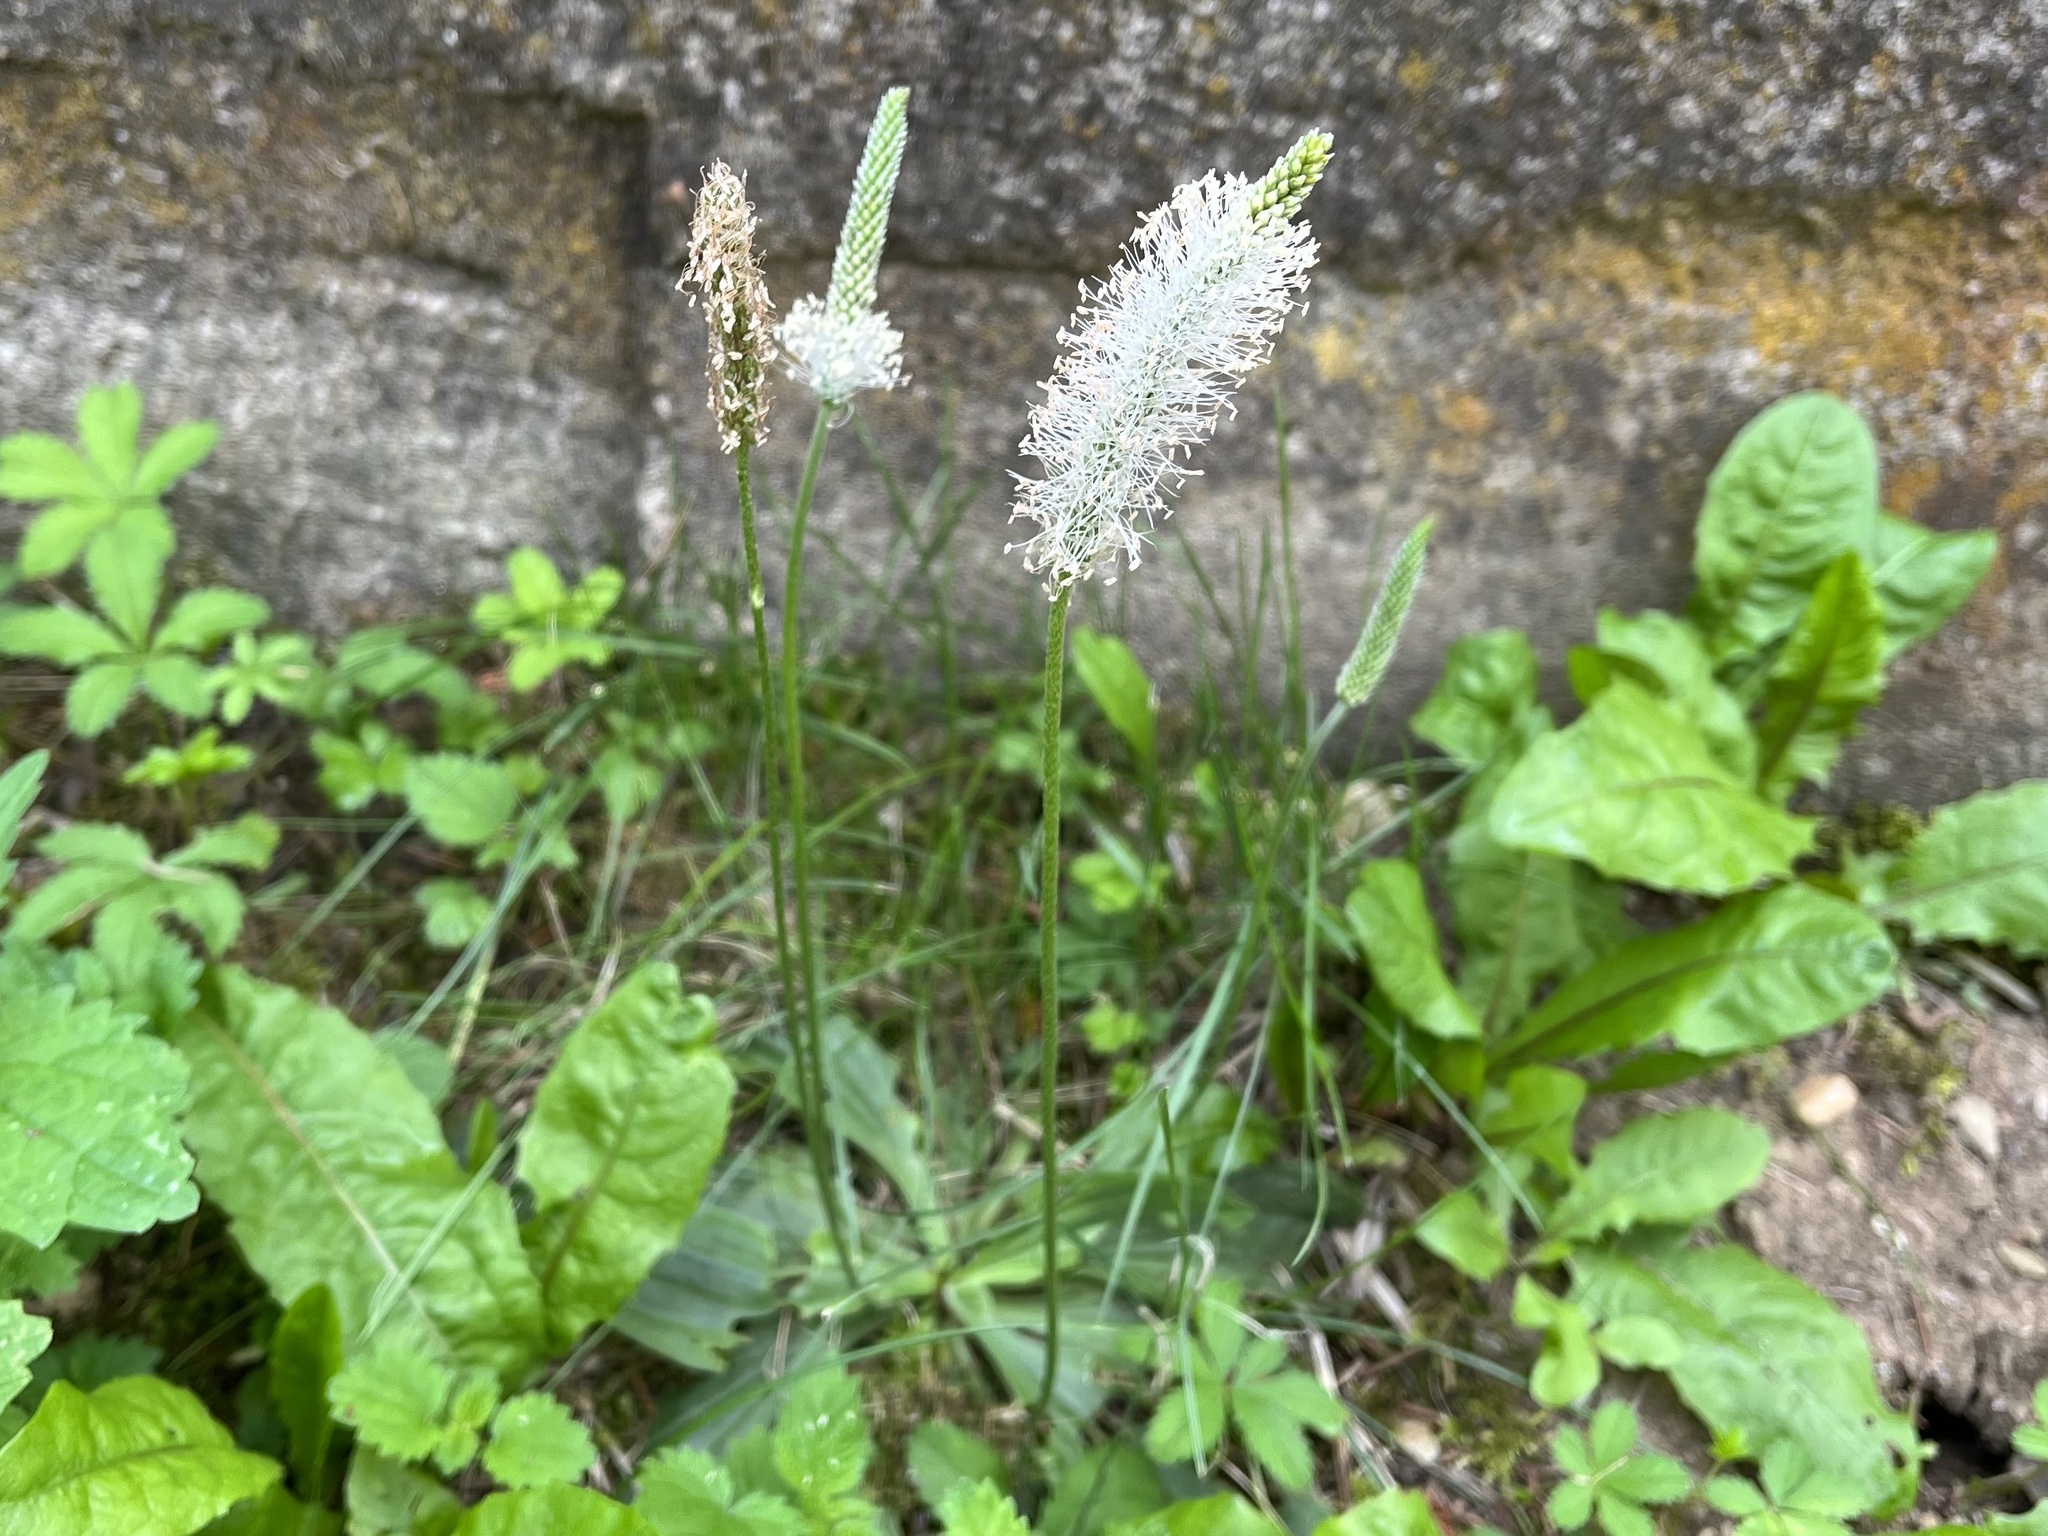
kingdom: Plantae
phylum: Tracheophyta
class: Magnoliopsida
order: Lamiales
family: Plantaginaceae
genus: Plantago
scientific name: Plantago media
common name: Hoary plantain
